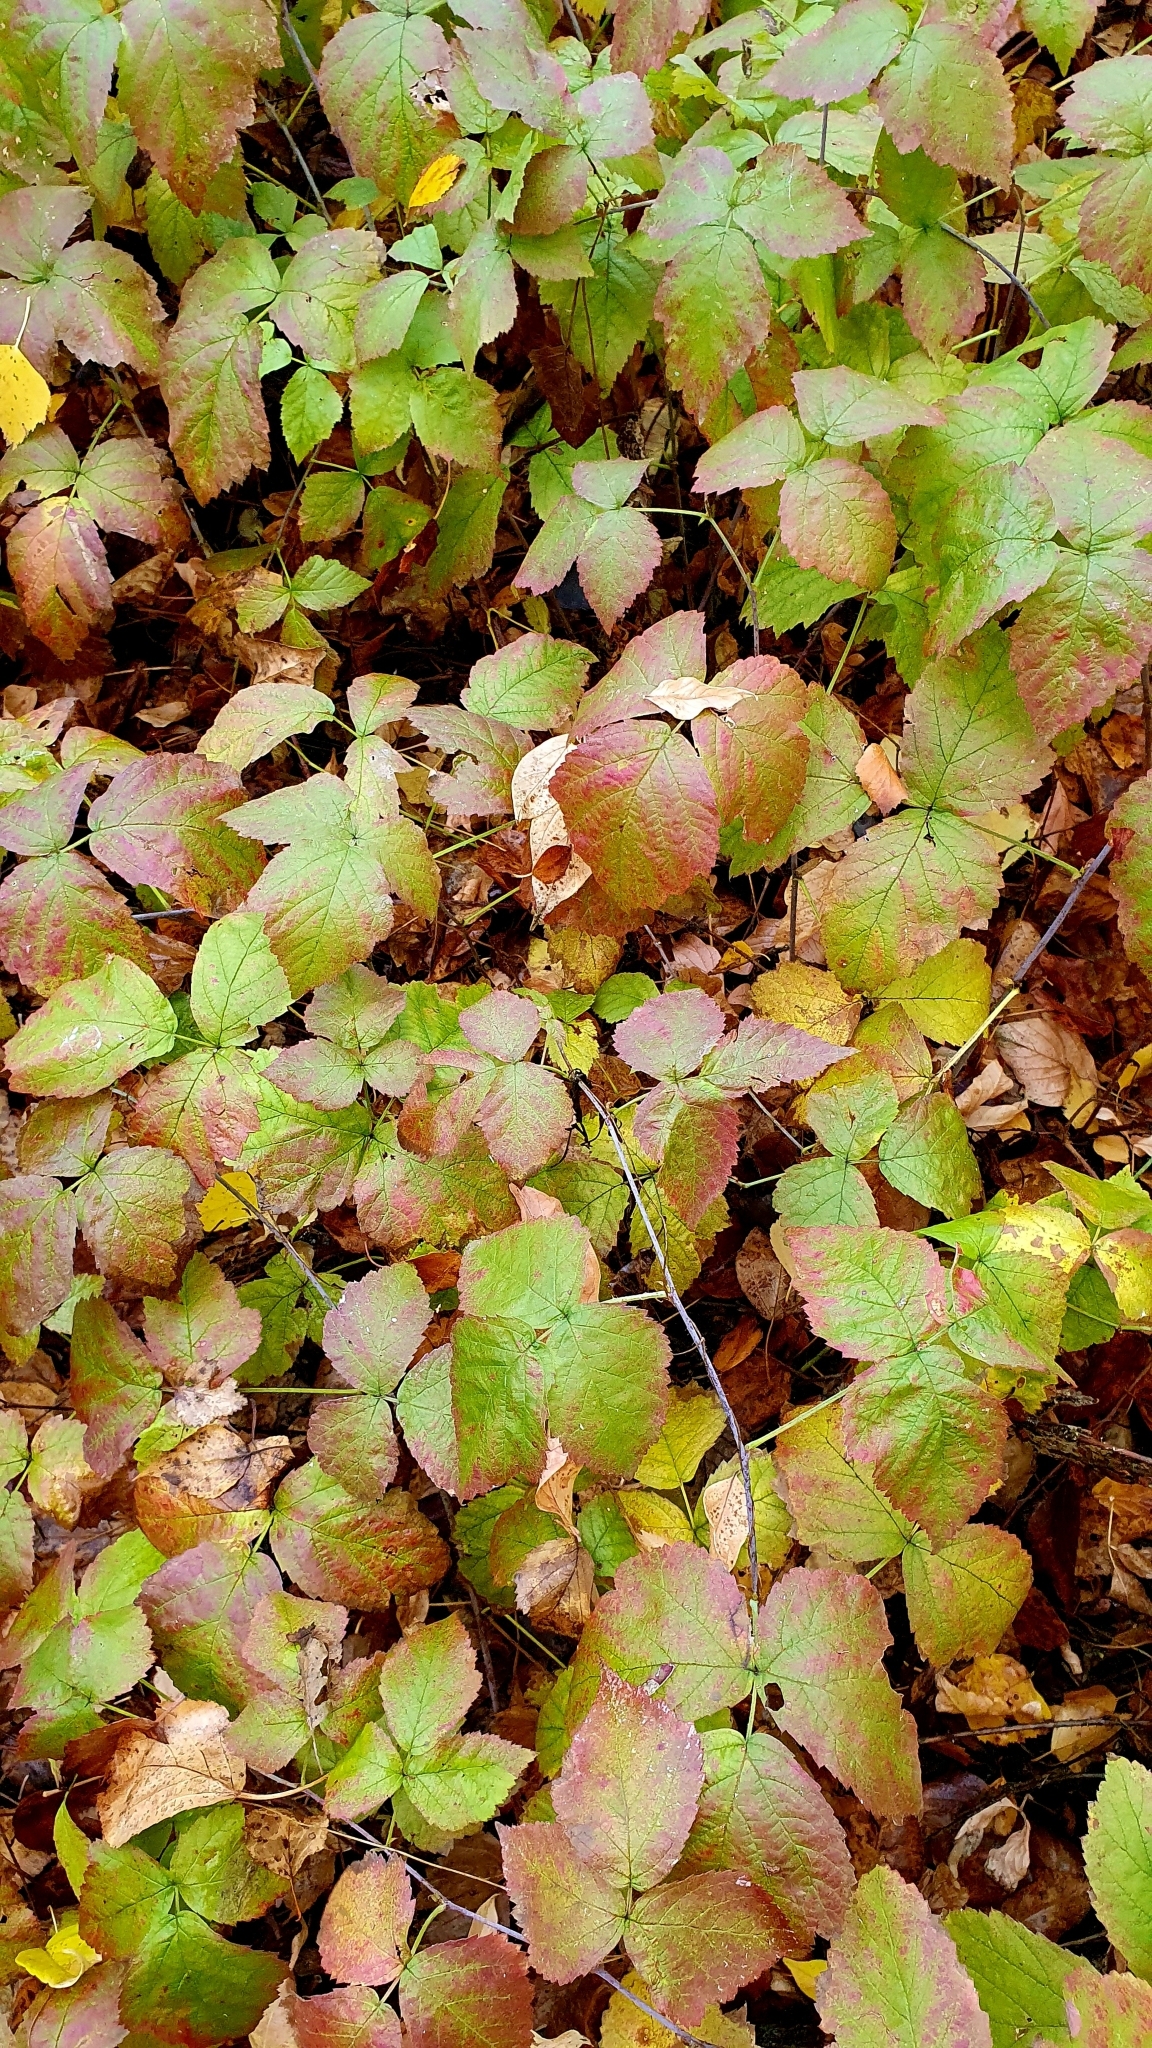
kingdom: Plantae
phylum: Tracheophyta
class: Magnoliopsida
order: Rosales
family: Rosaceae
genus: Rubus
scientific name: Rubus caesius
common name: Dewberry
